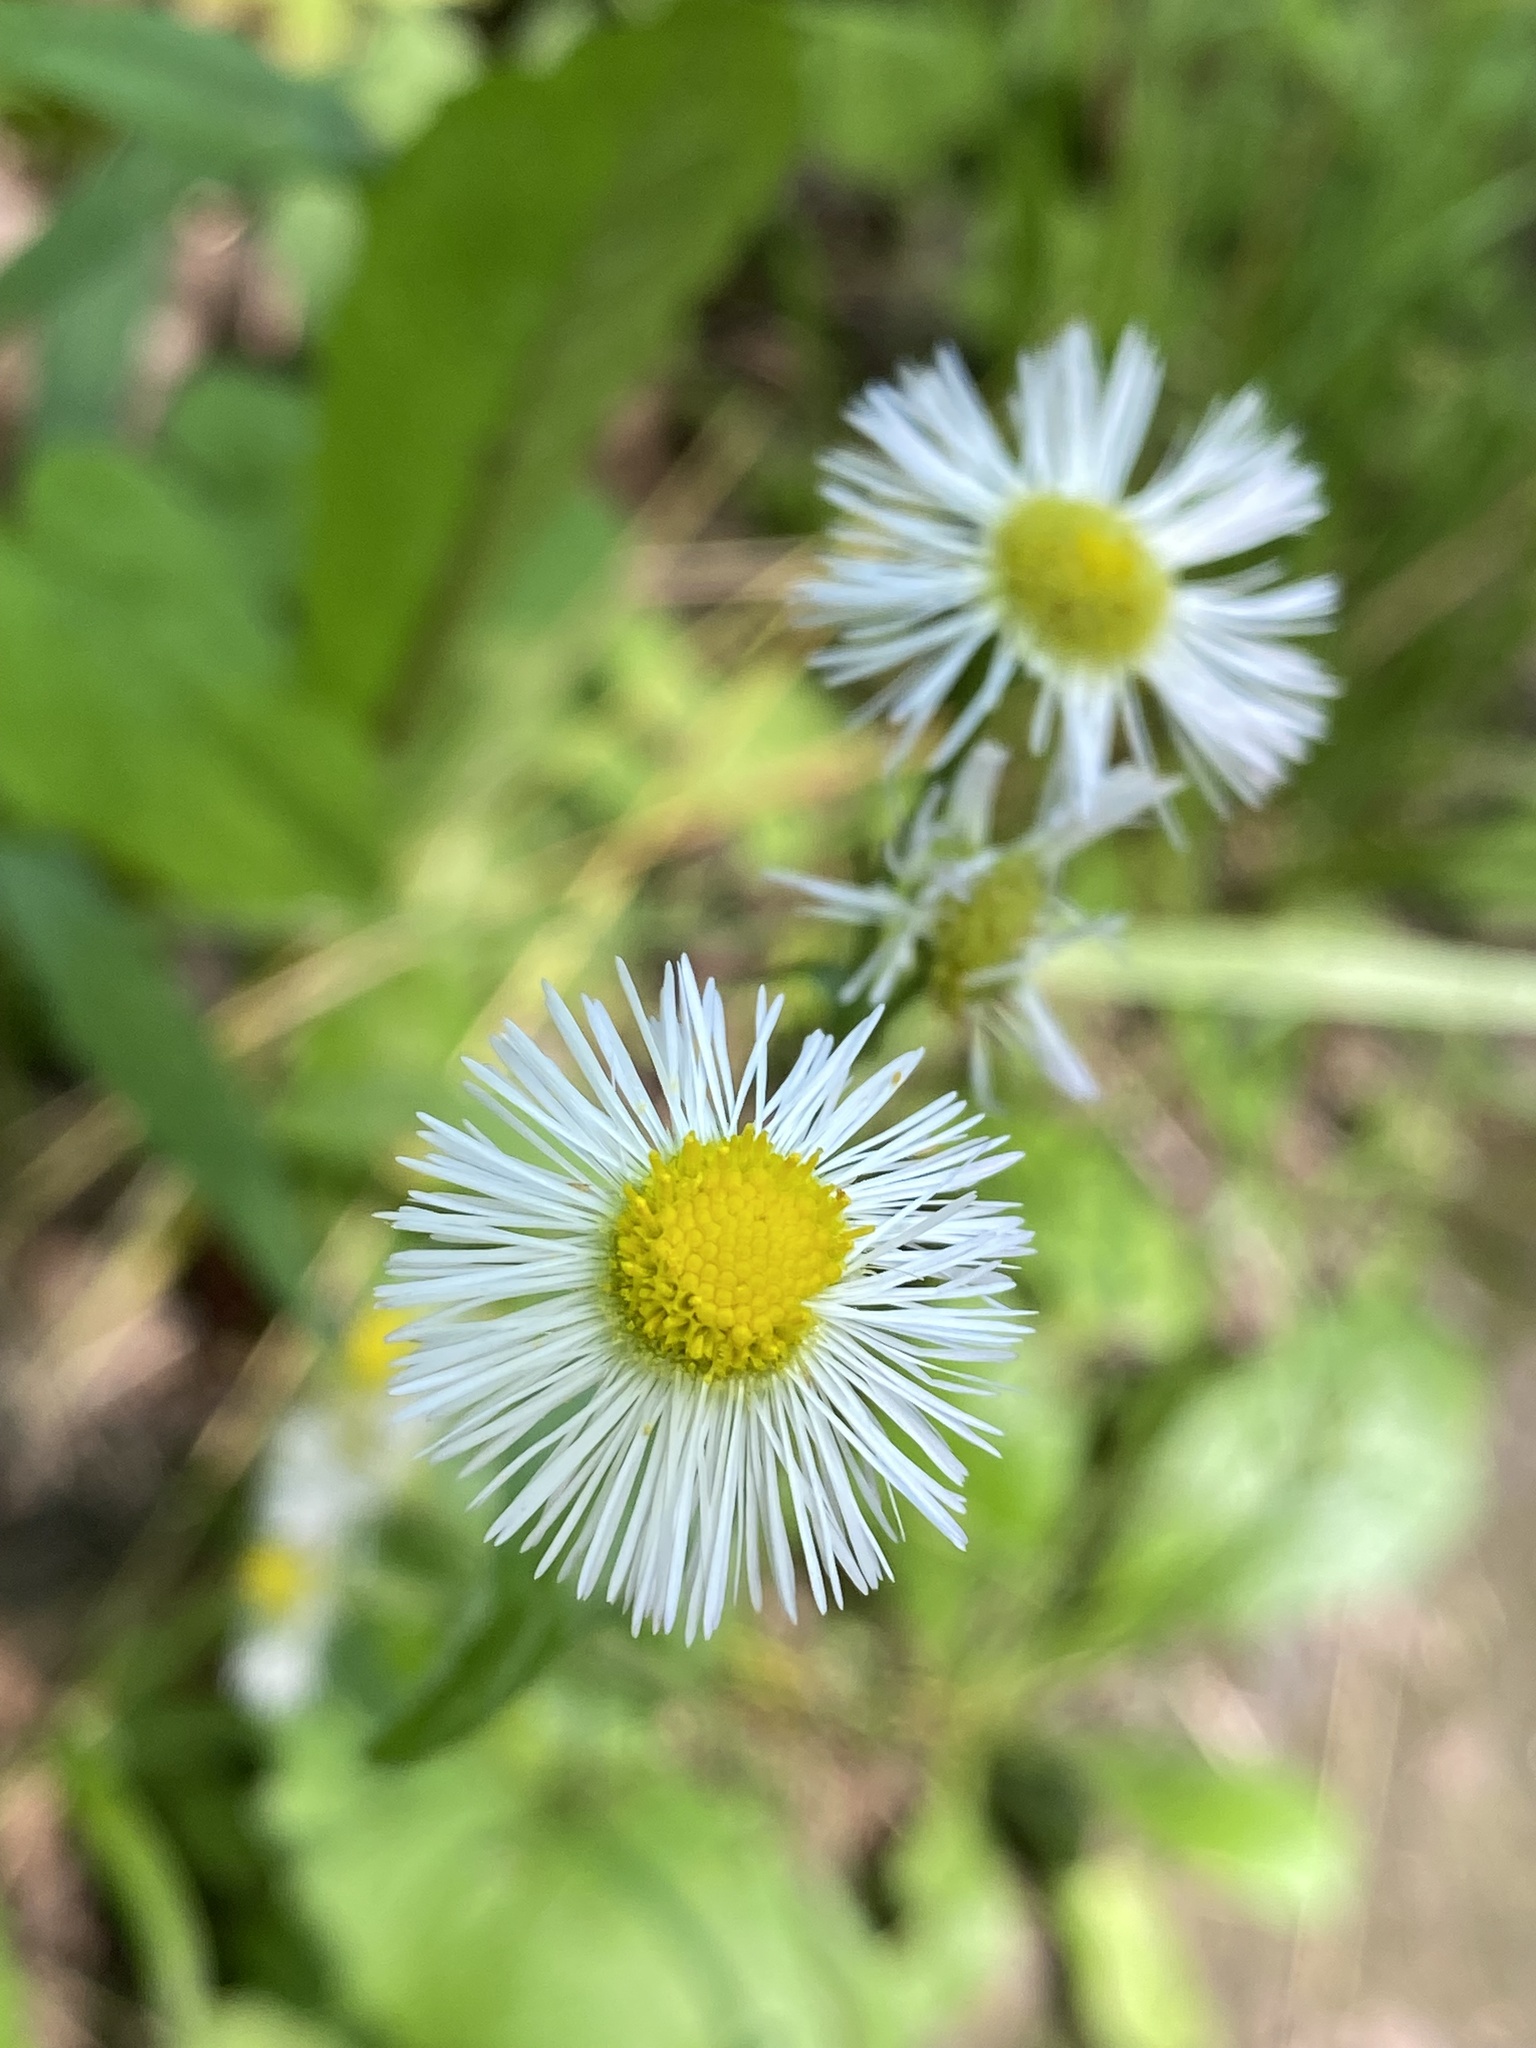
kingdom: Plantae
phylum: Tracheophyta
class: Magnoliopsida
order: Asterales
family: Asteraceae
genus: Erigeron
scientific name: Erigeron philadelphicus
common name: Robin's-plantain
